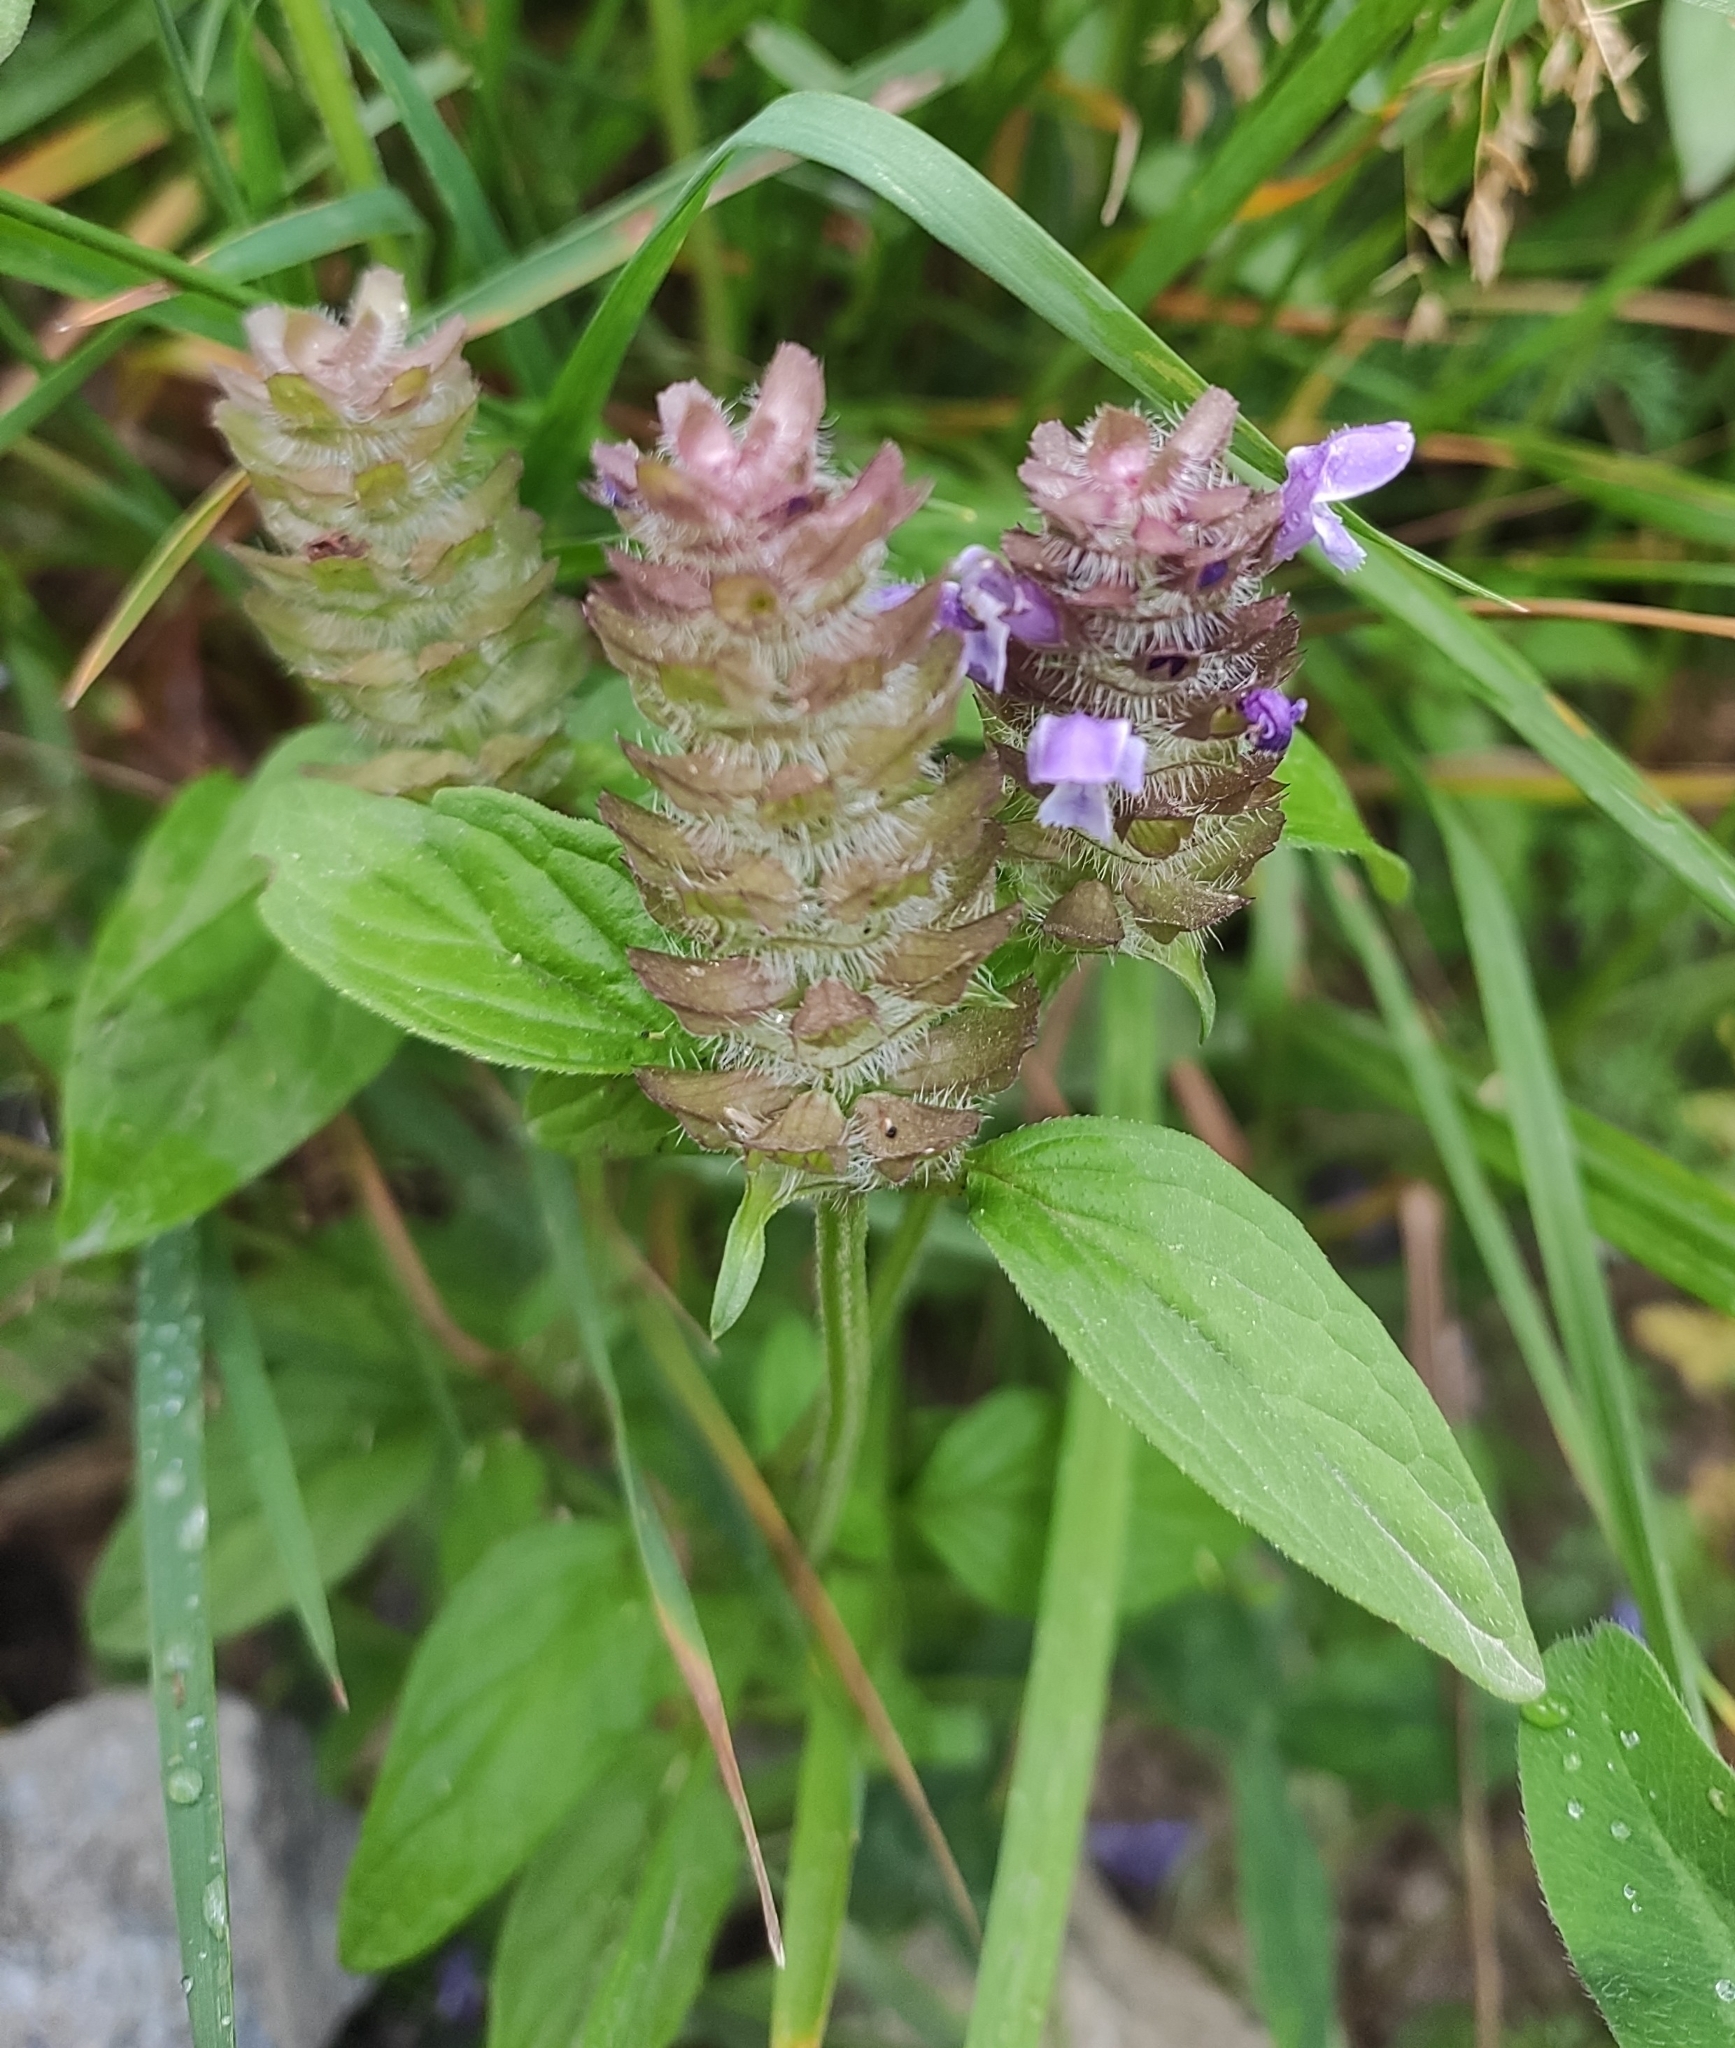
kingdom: Plantae
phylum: Tracheophyta
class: Magnoliopsida
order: Lamiales
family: Lamiaceae
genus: Prunella
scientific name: Prunella vulgaris
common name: Heal-all
